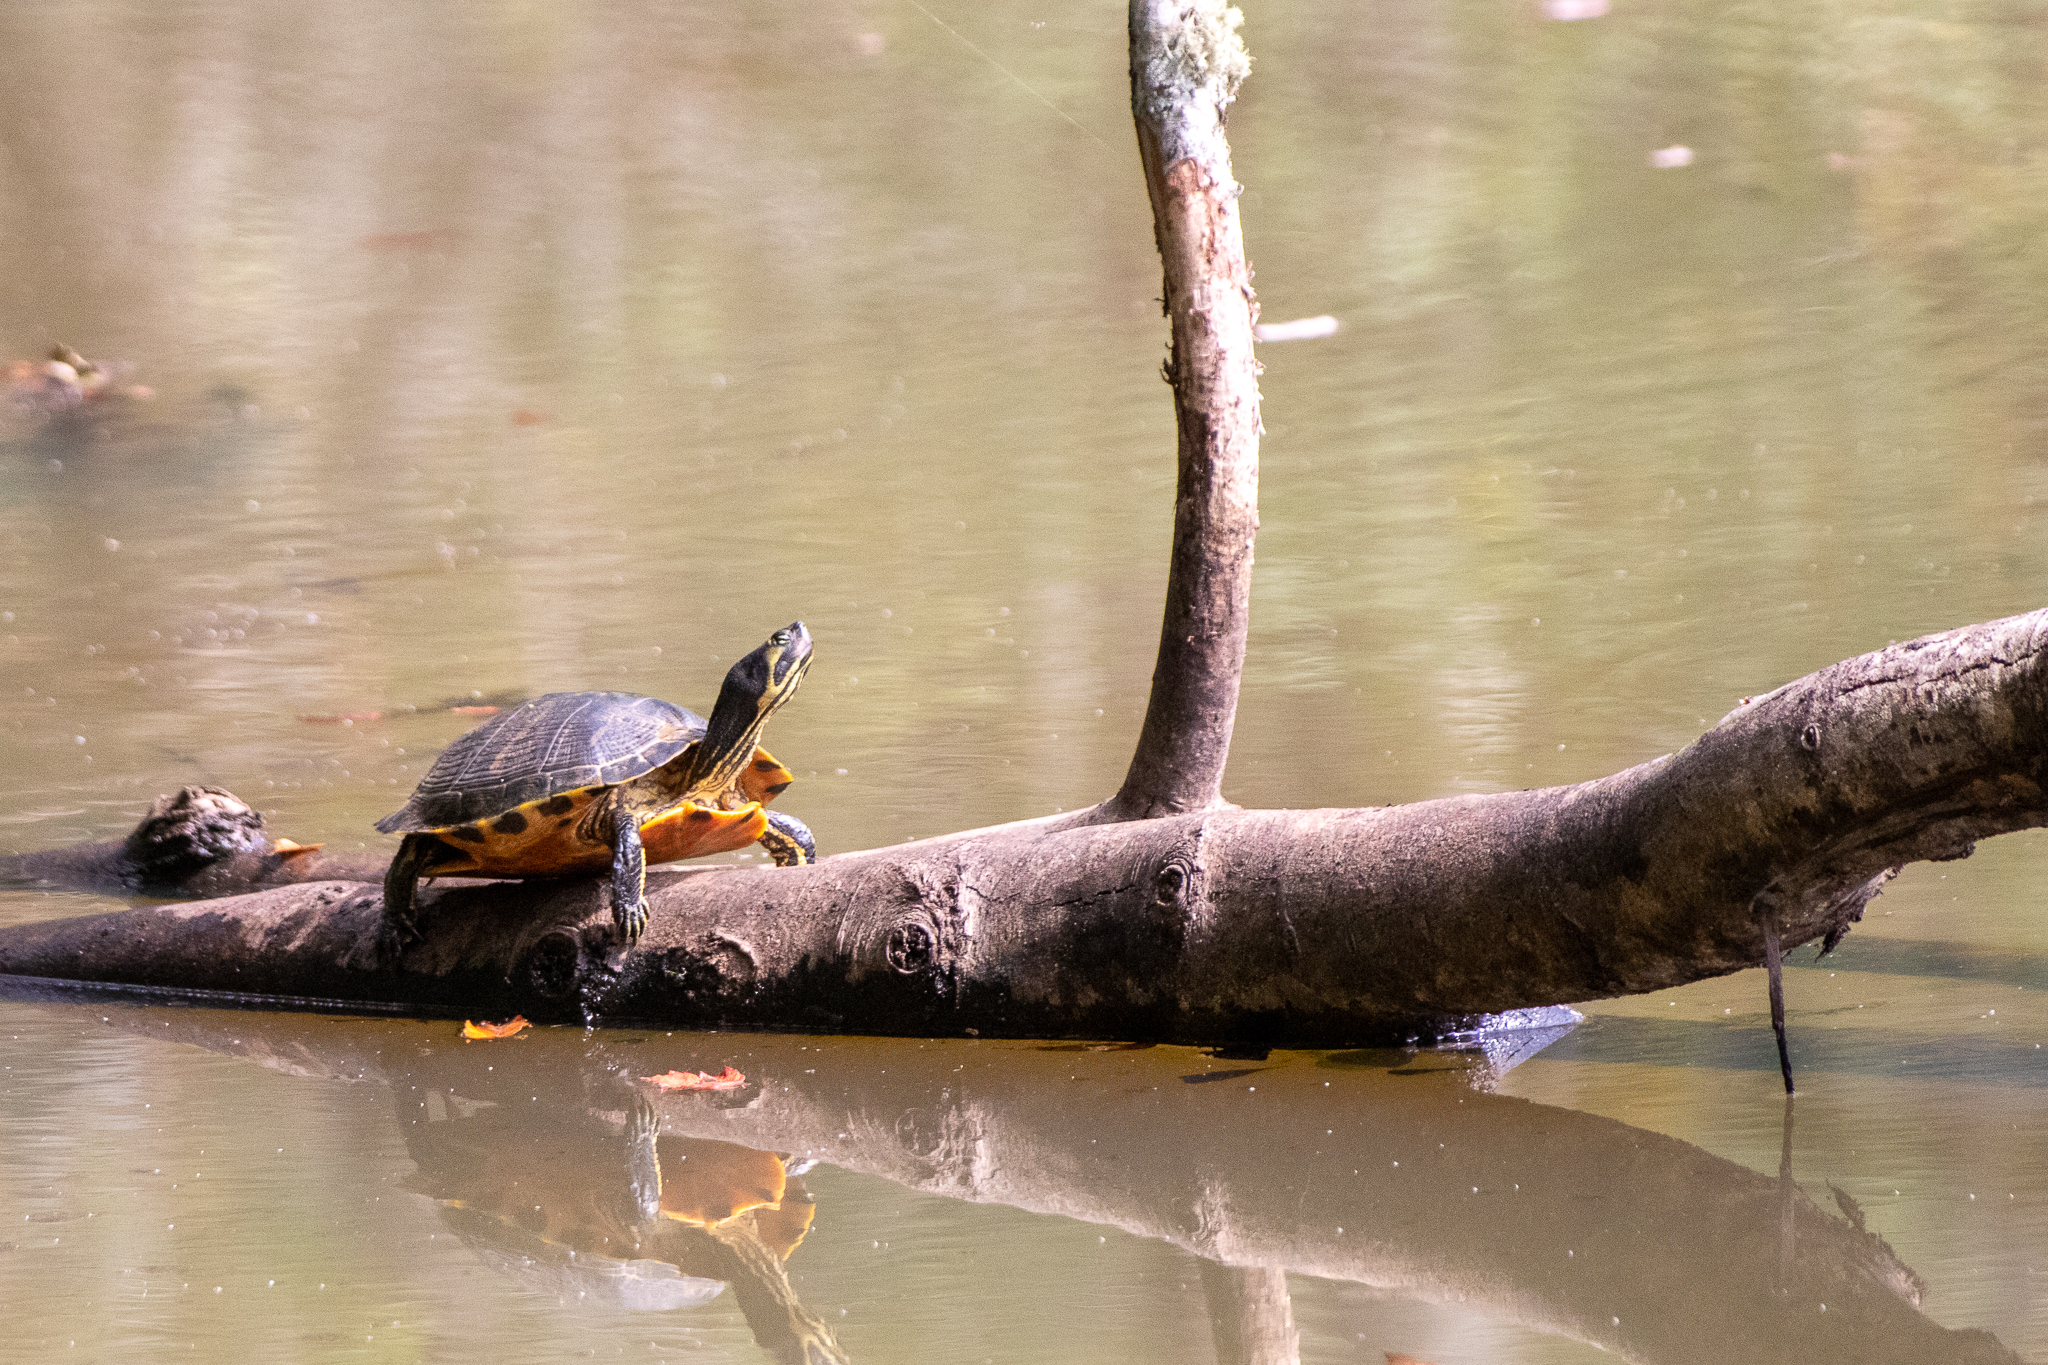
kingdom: Animalia
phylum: Chordata
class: Testudines
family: Emydidae
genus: Trachemys
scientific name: Trachemys scripta
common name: Slider
